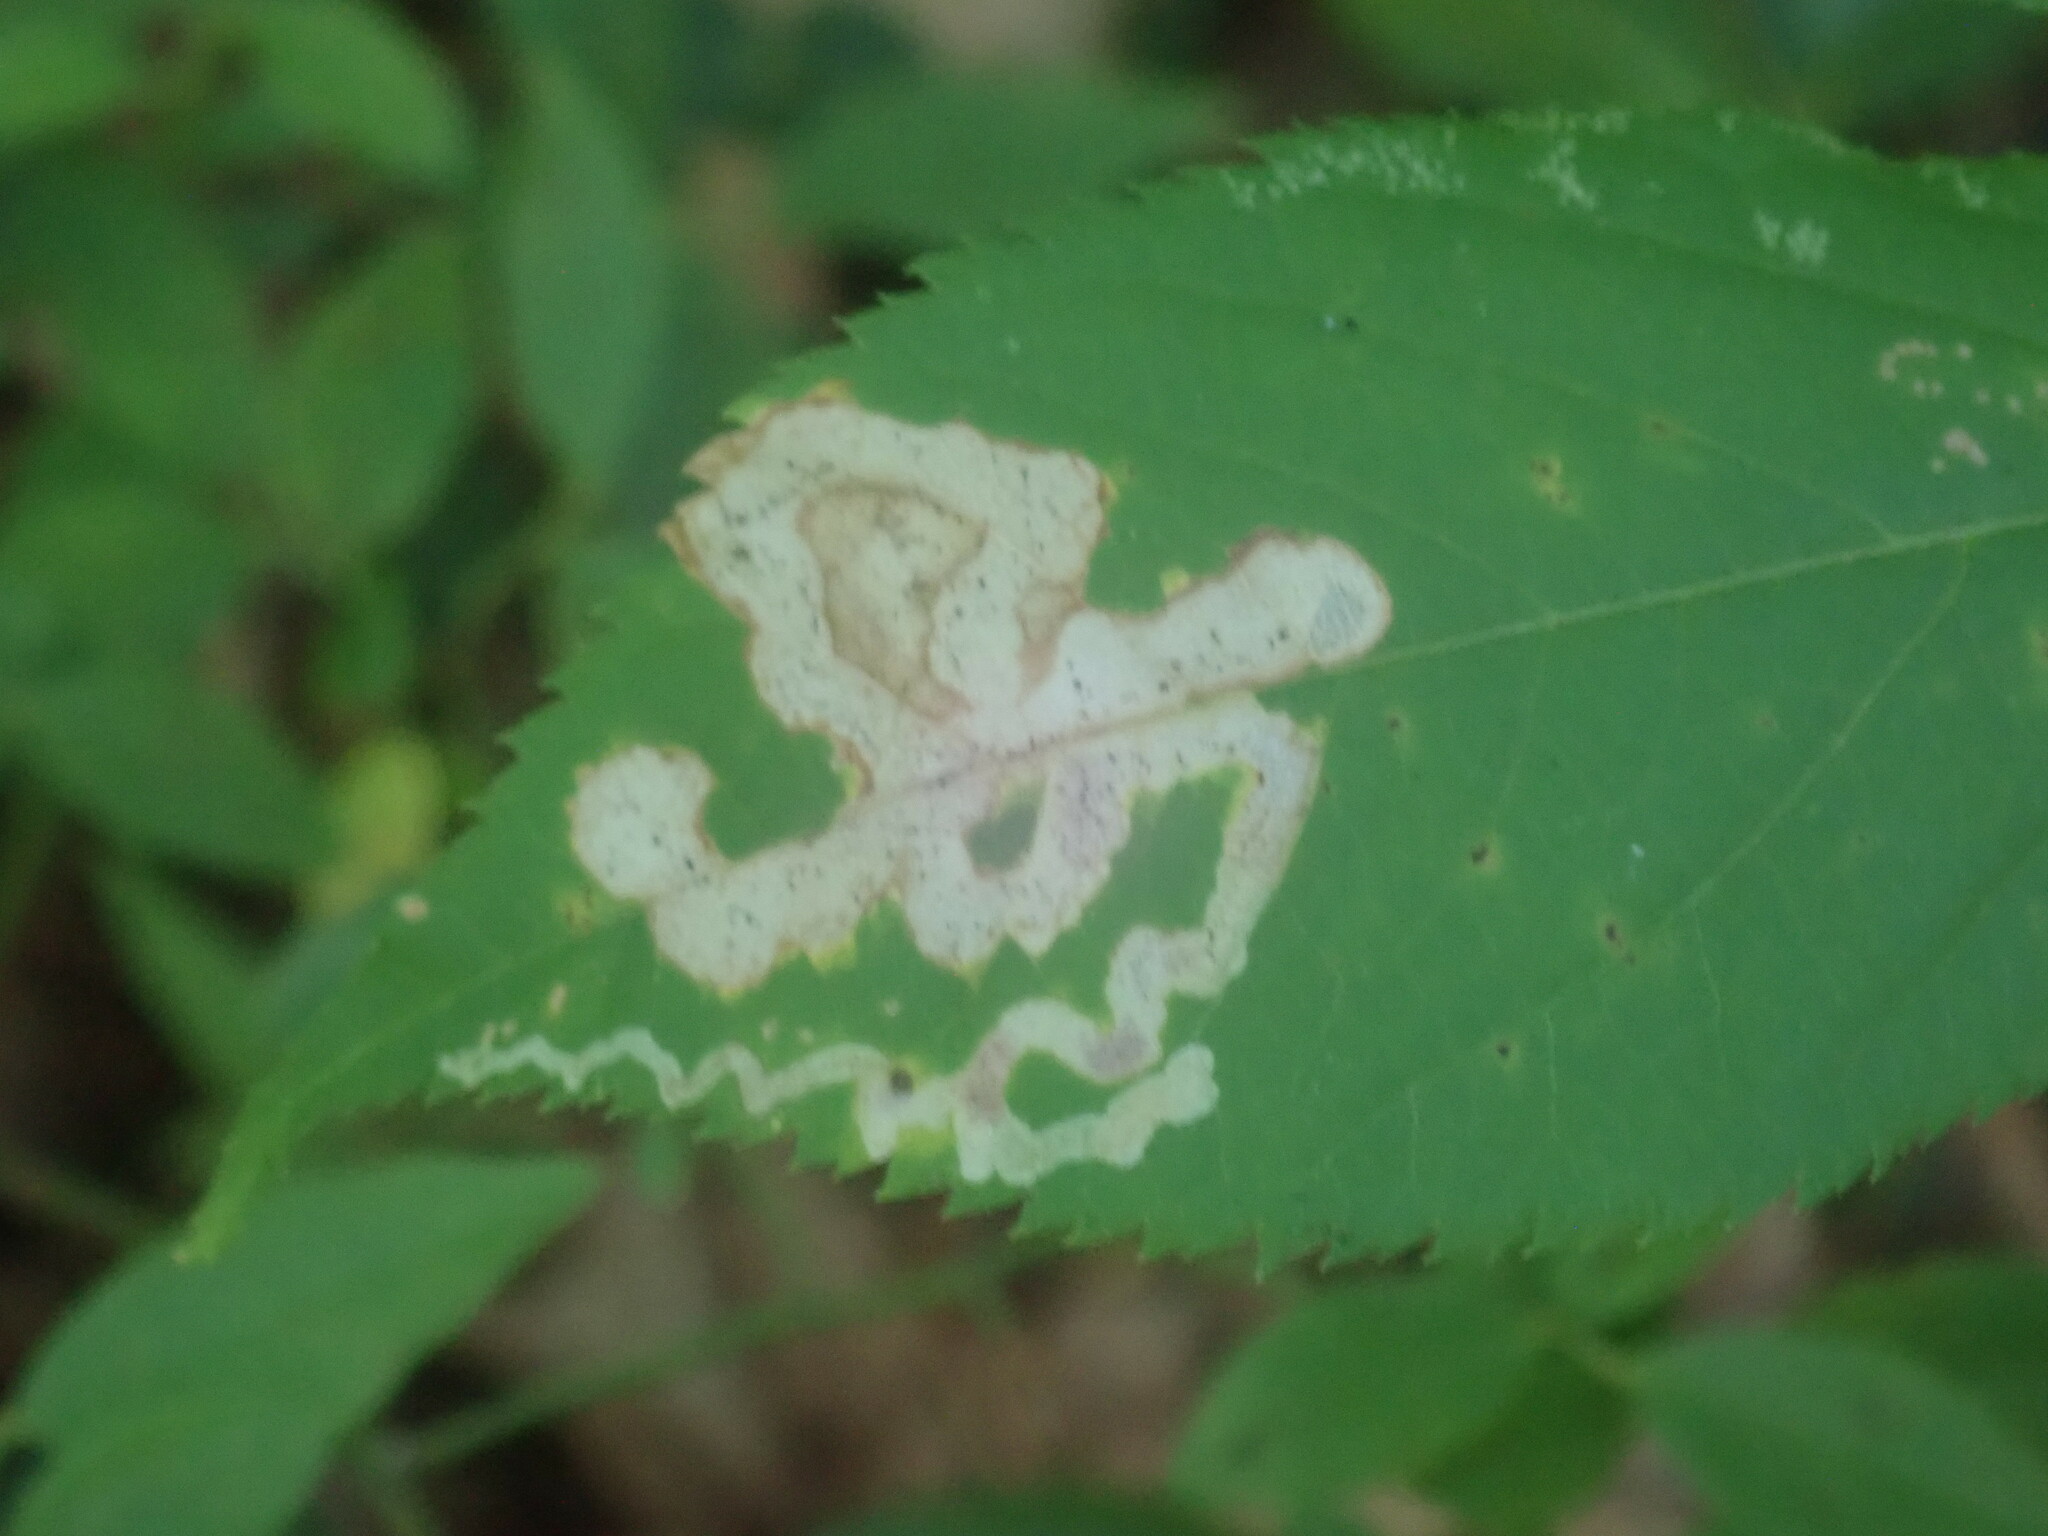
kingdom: Animalia
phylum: Arthropoda
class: Insecta
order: Diptera
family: Agromyzidae
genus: Phytomyza
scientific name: Phytomyza aralivora
